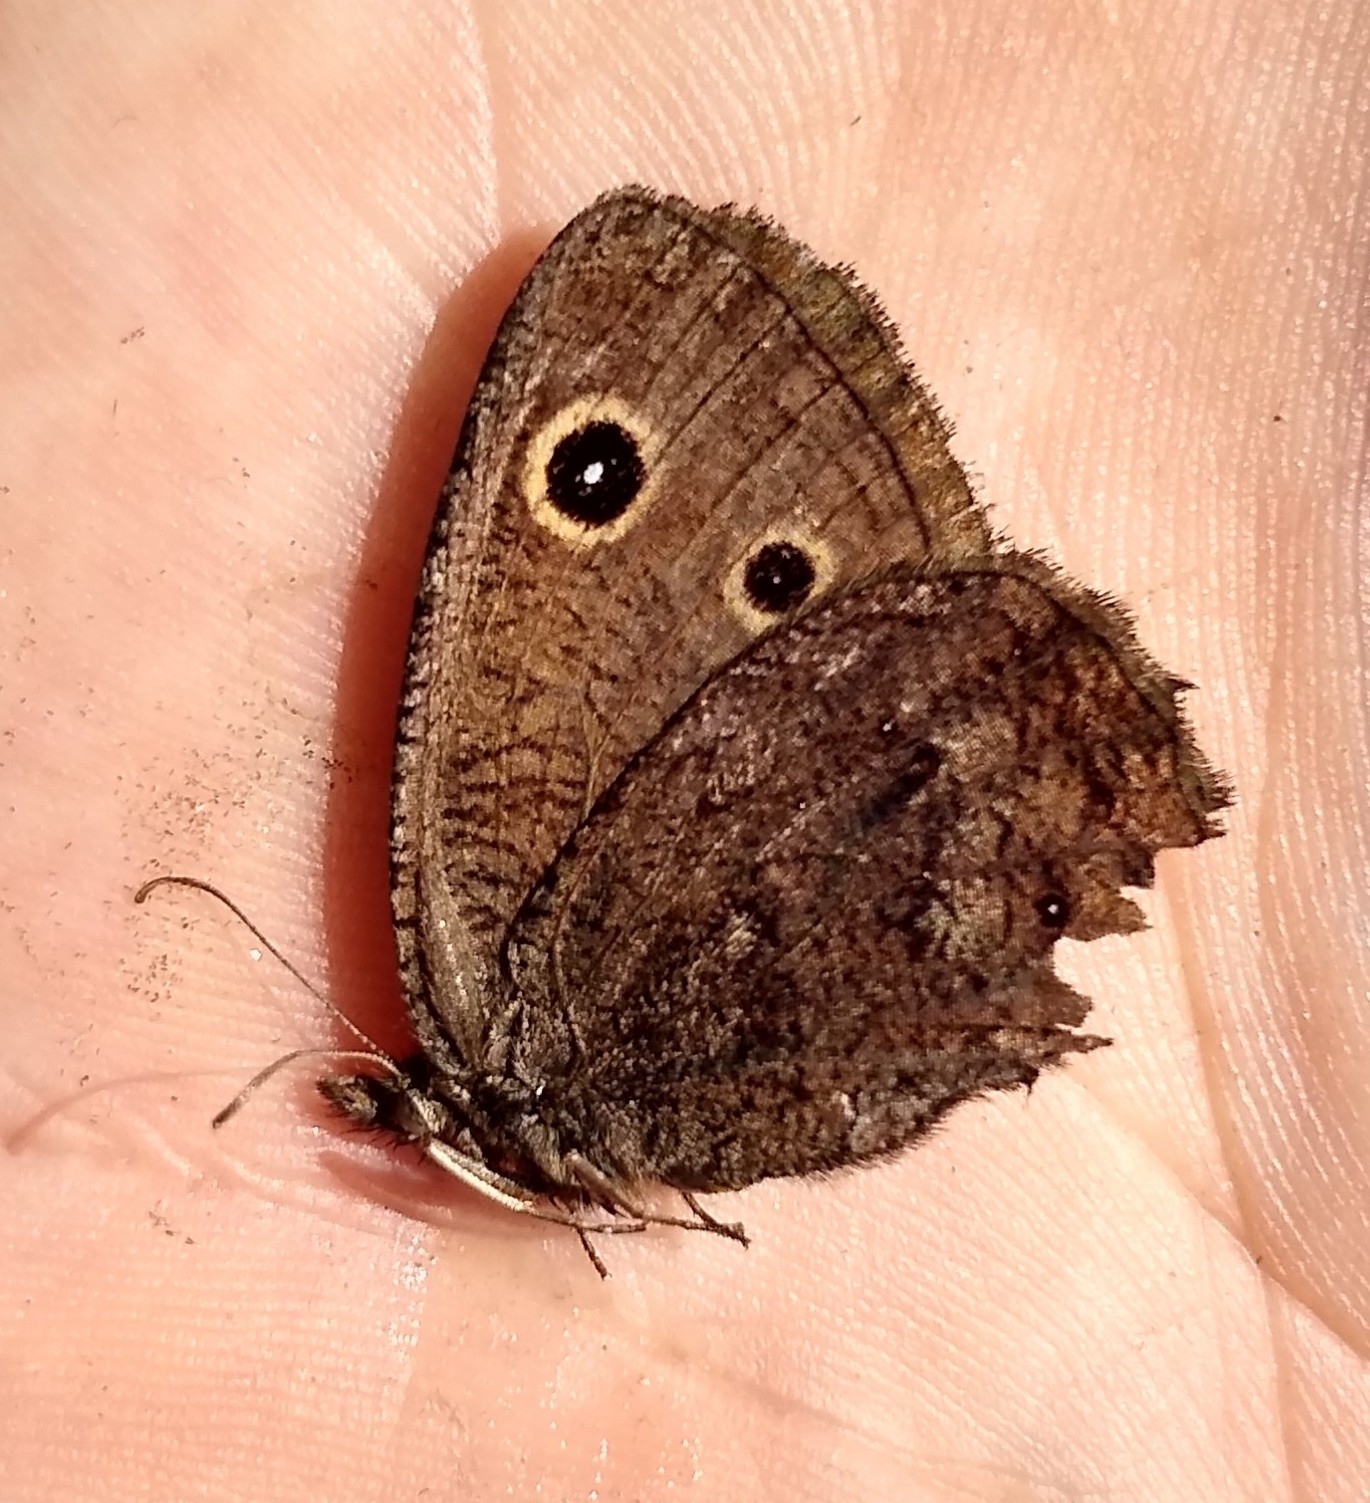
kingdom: Animalia
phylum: Arthropoda
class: Insecta
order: Lepidoptera
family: Nymphalidae
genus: Cercyonis
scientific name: Cercyonis oetus
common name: Small wood-nymph
